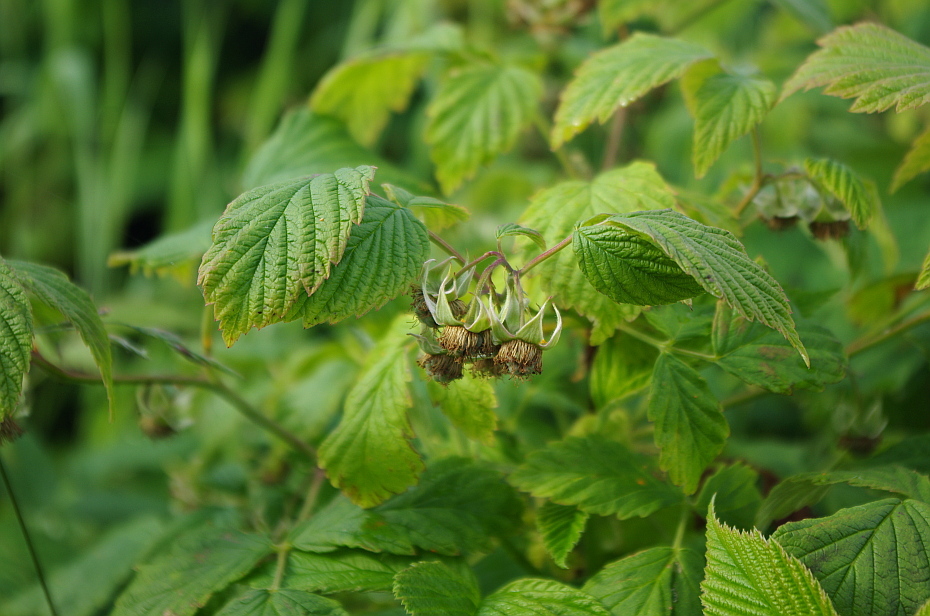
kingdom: Plantae
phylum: Tracheophyta
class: Magnoliopsida
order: Rosales
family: Rosaceae
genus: Rubus
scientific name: Rubus idaeus
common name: Raspberry
